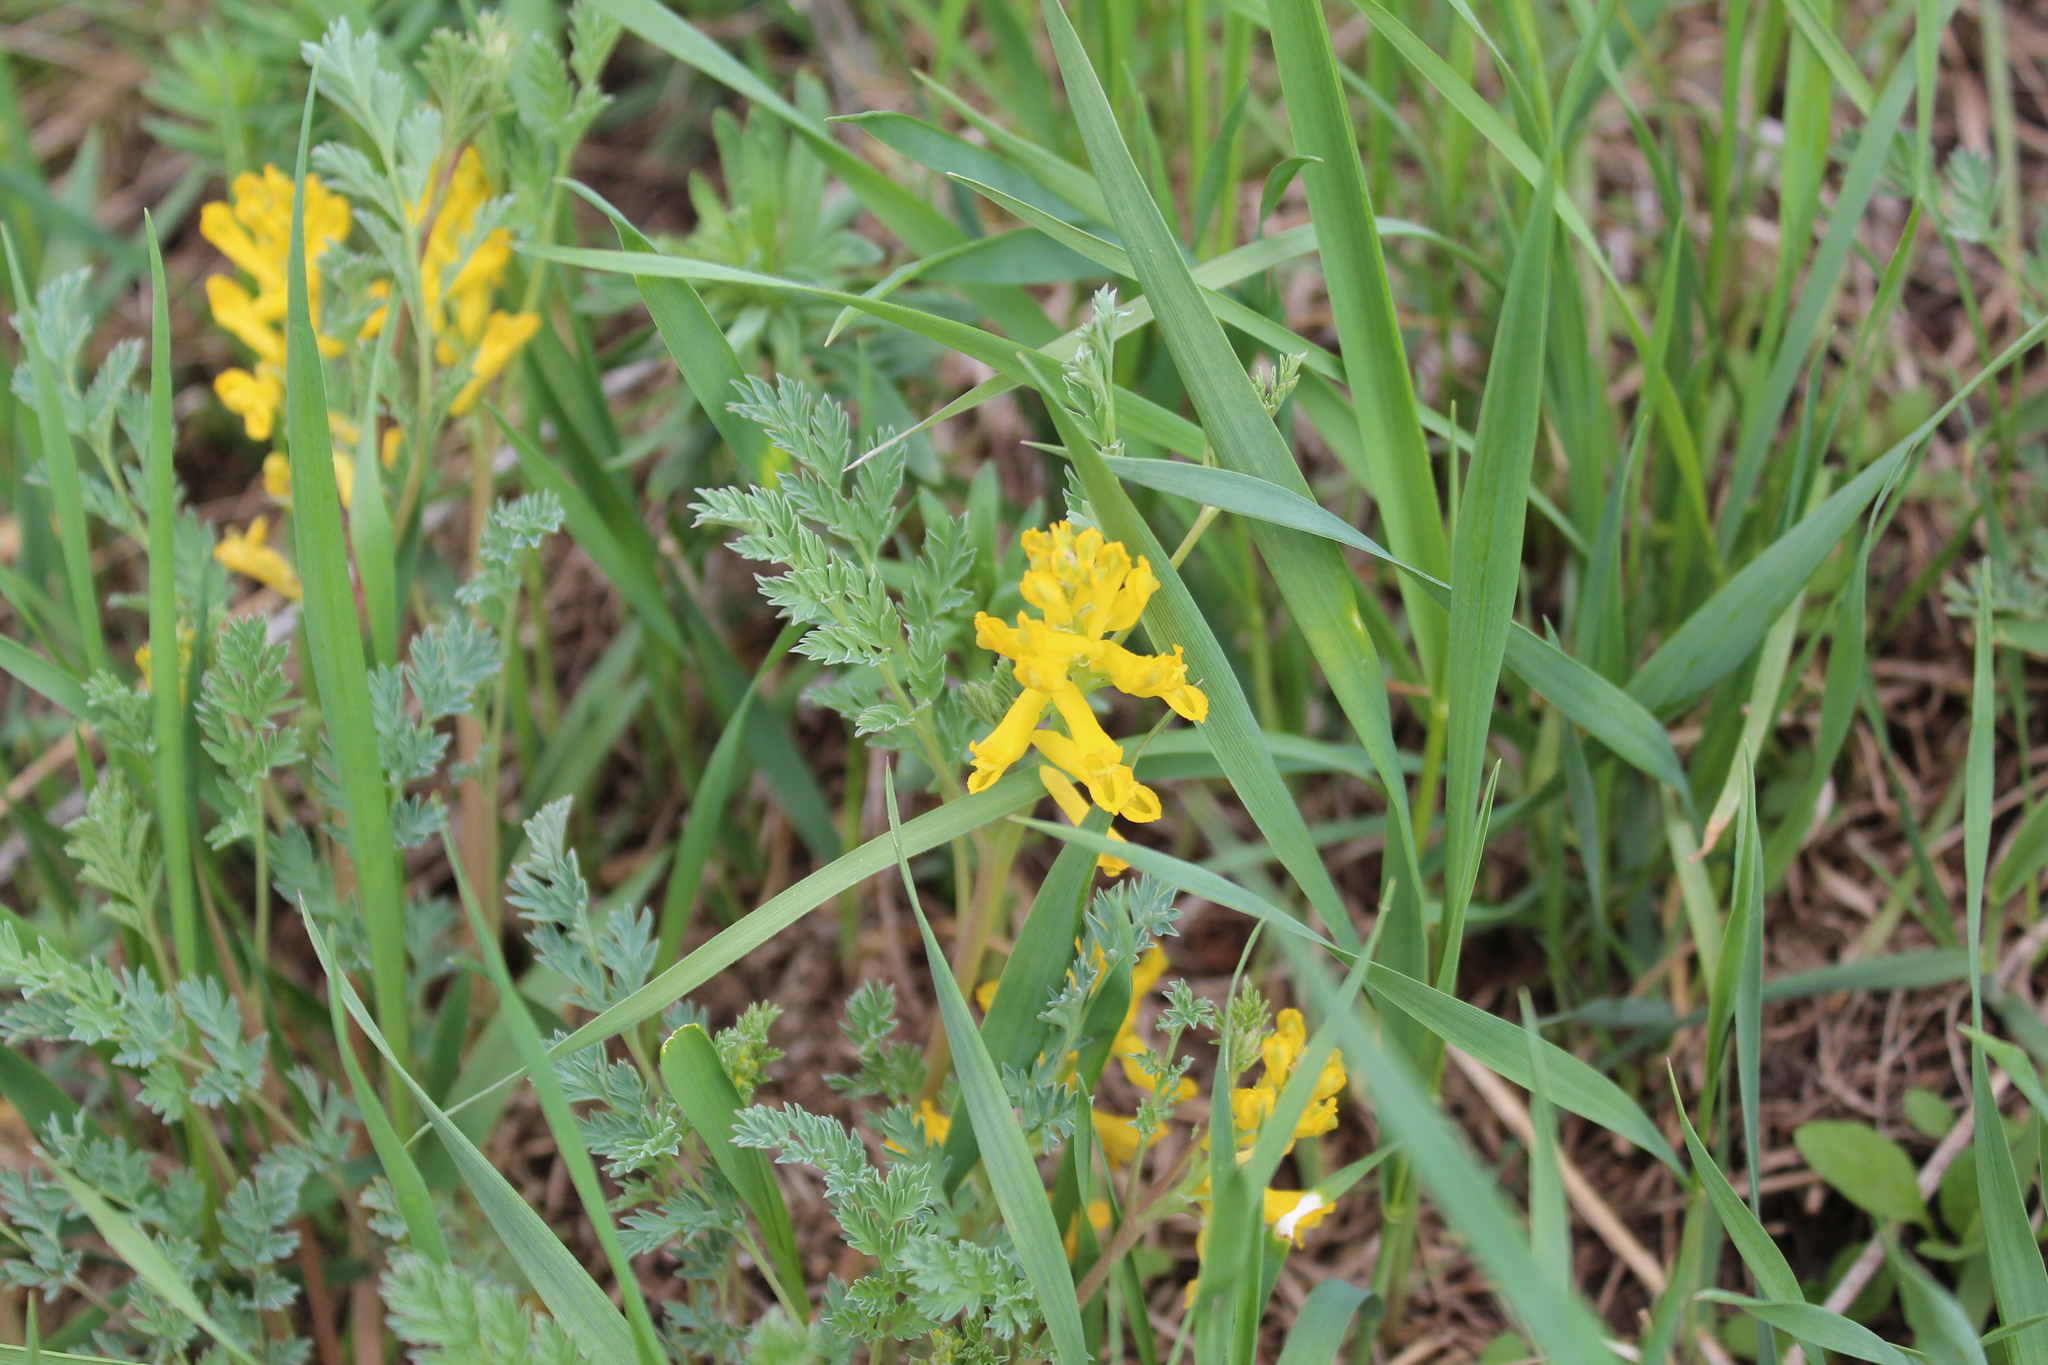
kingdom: Plantae
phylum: Tracheophyta
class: Magnoliopsida
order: Ranunculales
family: Papaveraceae
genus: Corydalis
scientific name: Corydalis aurea
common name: Golden corydalis
